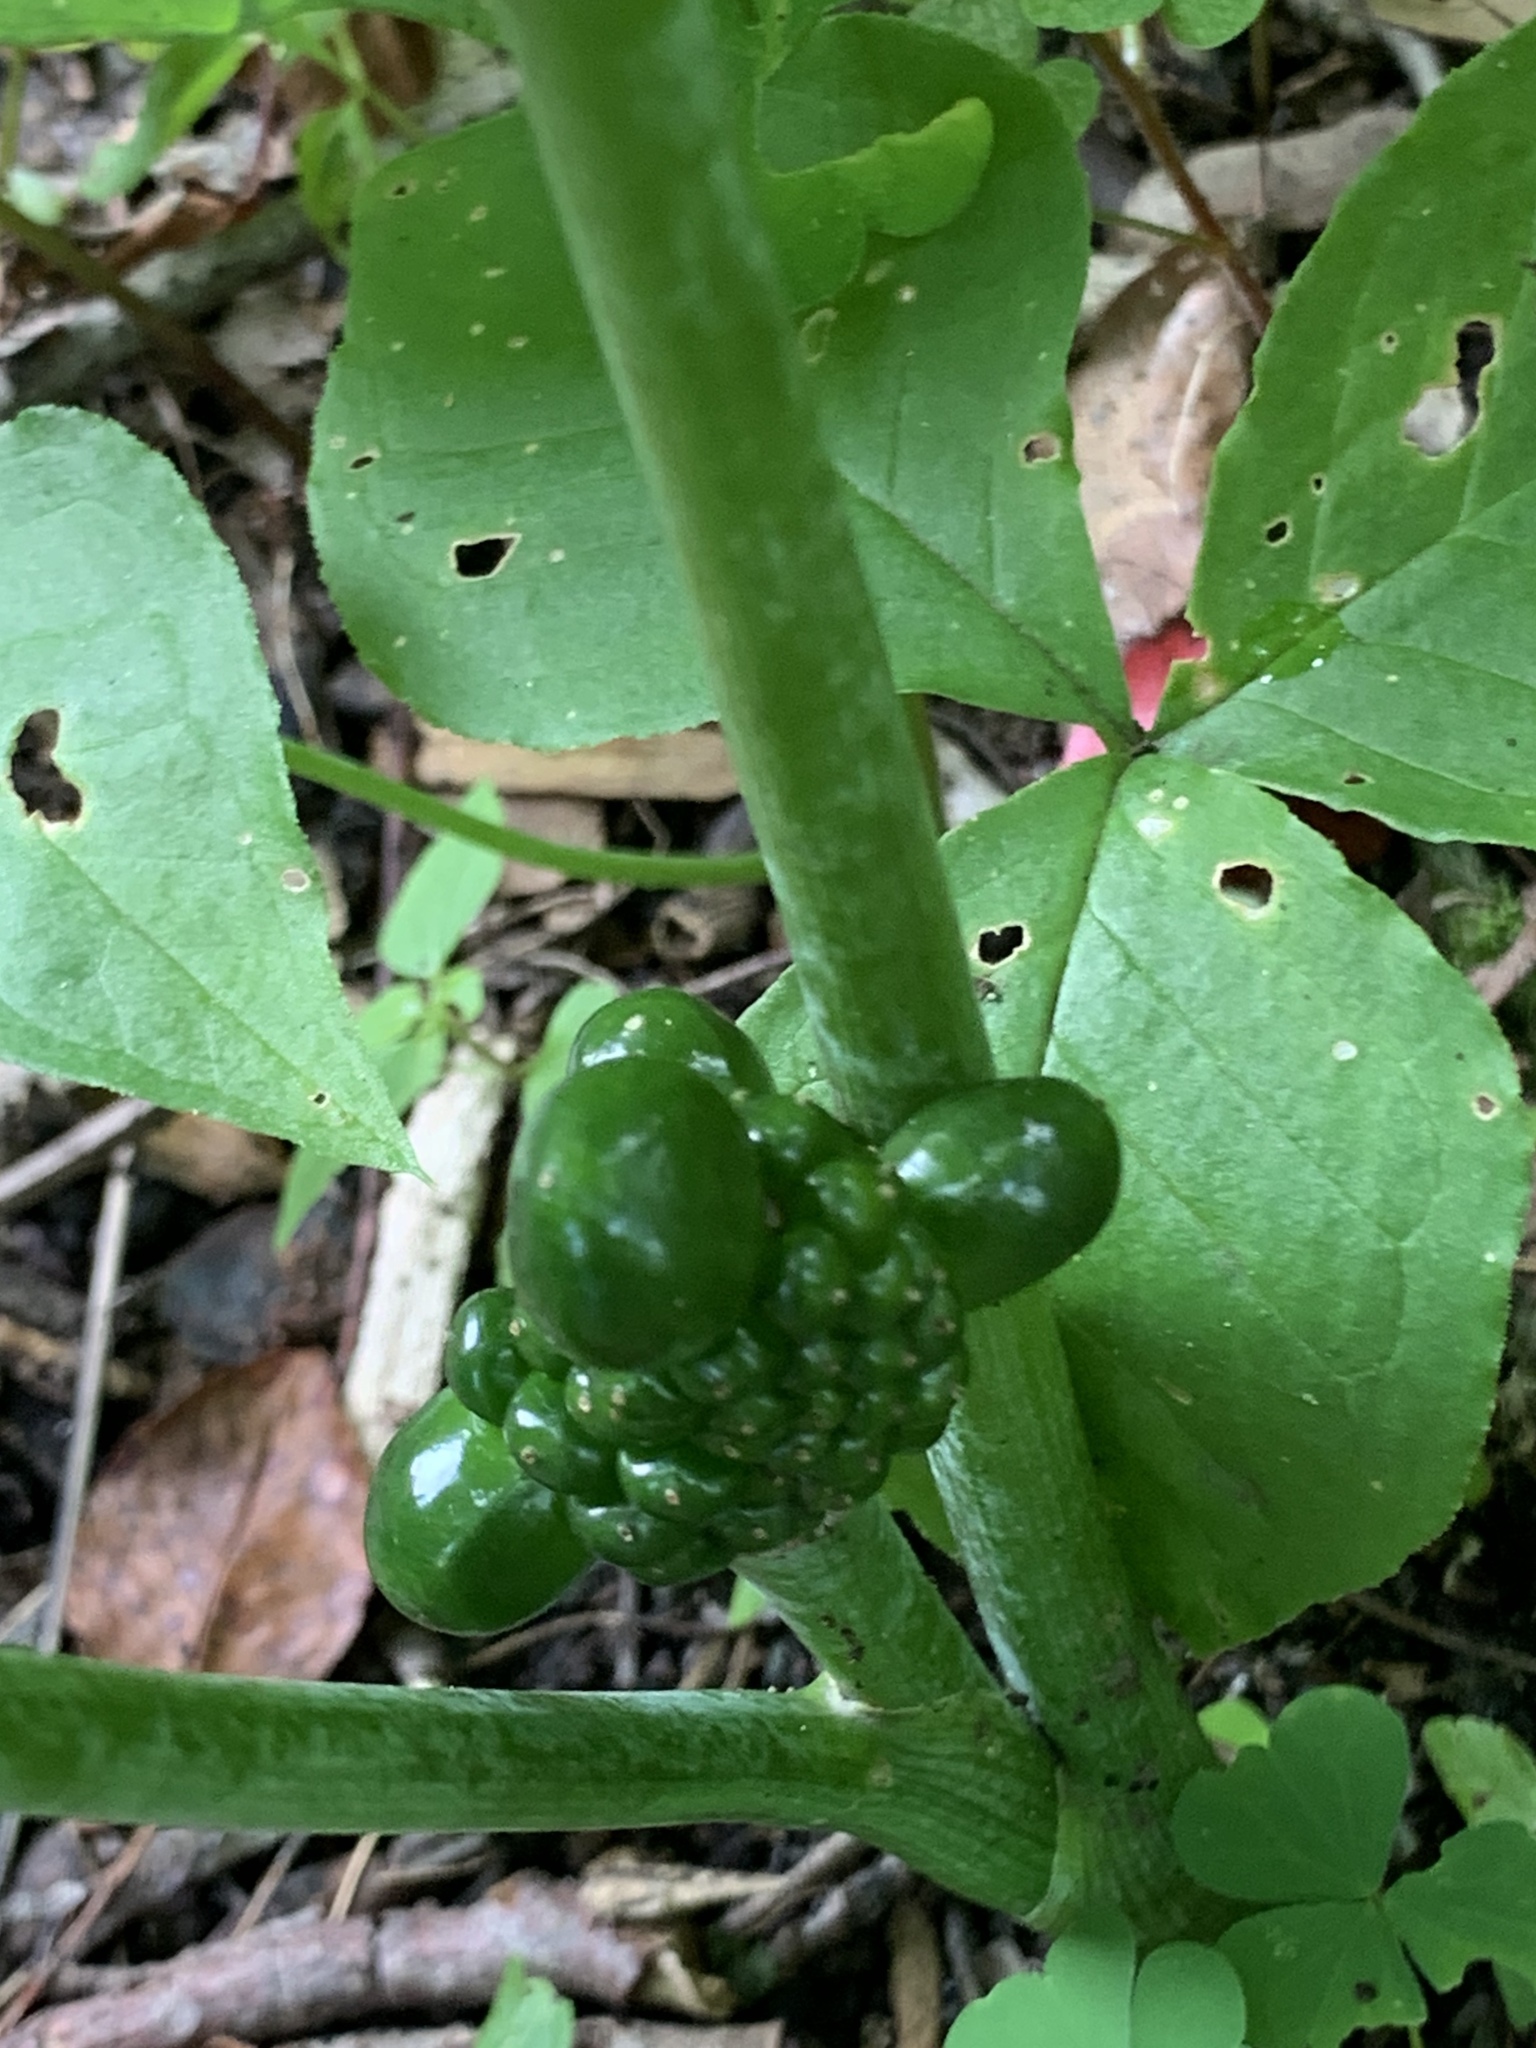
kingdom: Plantae
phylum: Tracheophyta
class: Liliopsida
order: Alismatales
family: Araceae
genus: Arisaema
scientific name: Arisaema triphyllum
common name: Jack-in-the-pulpit
